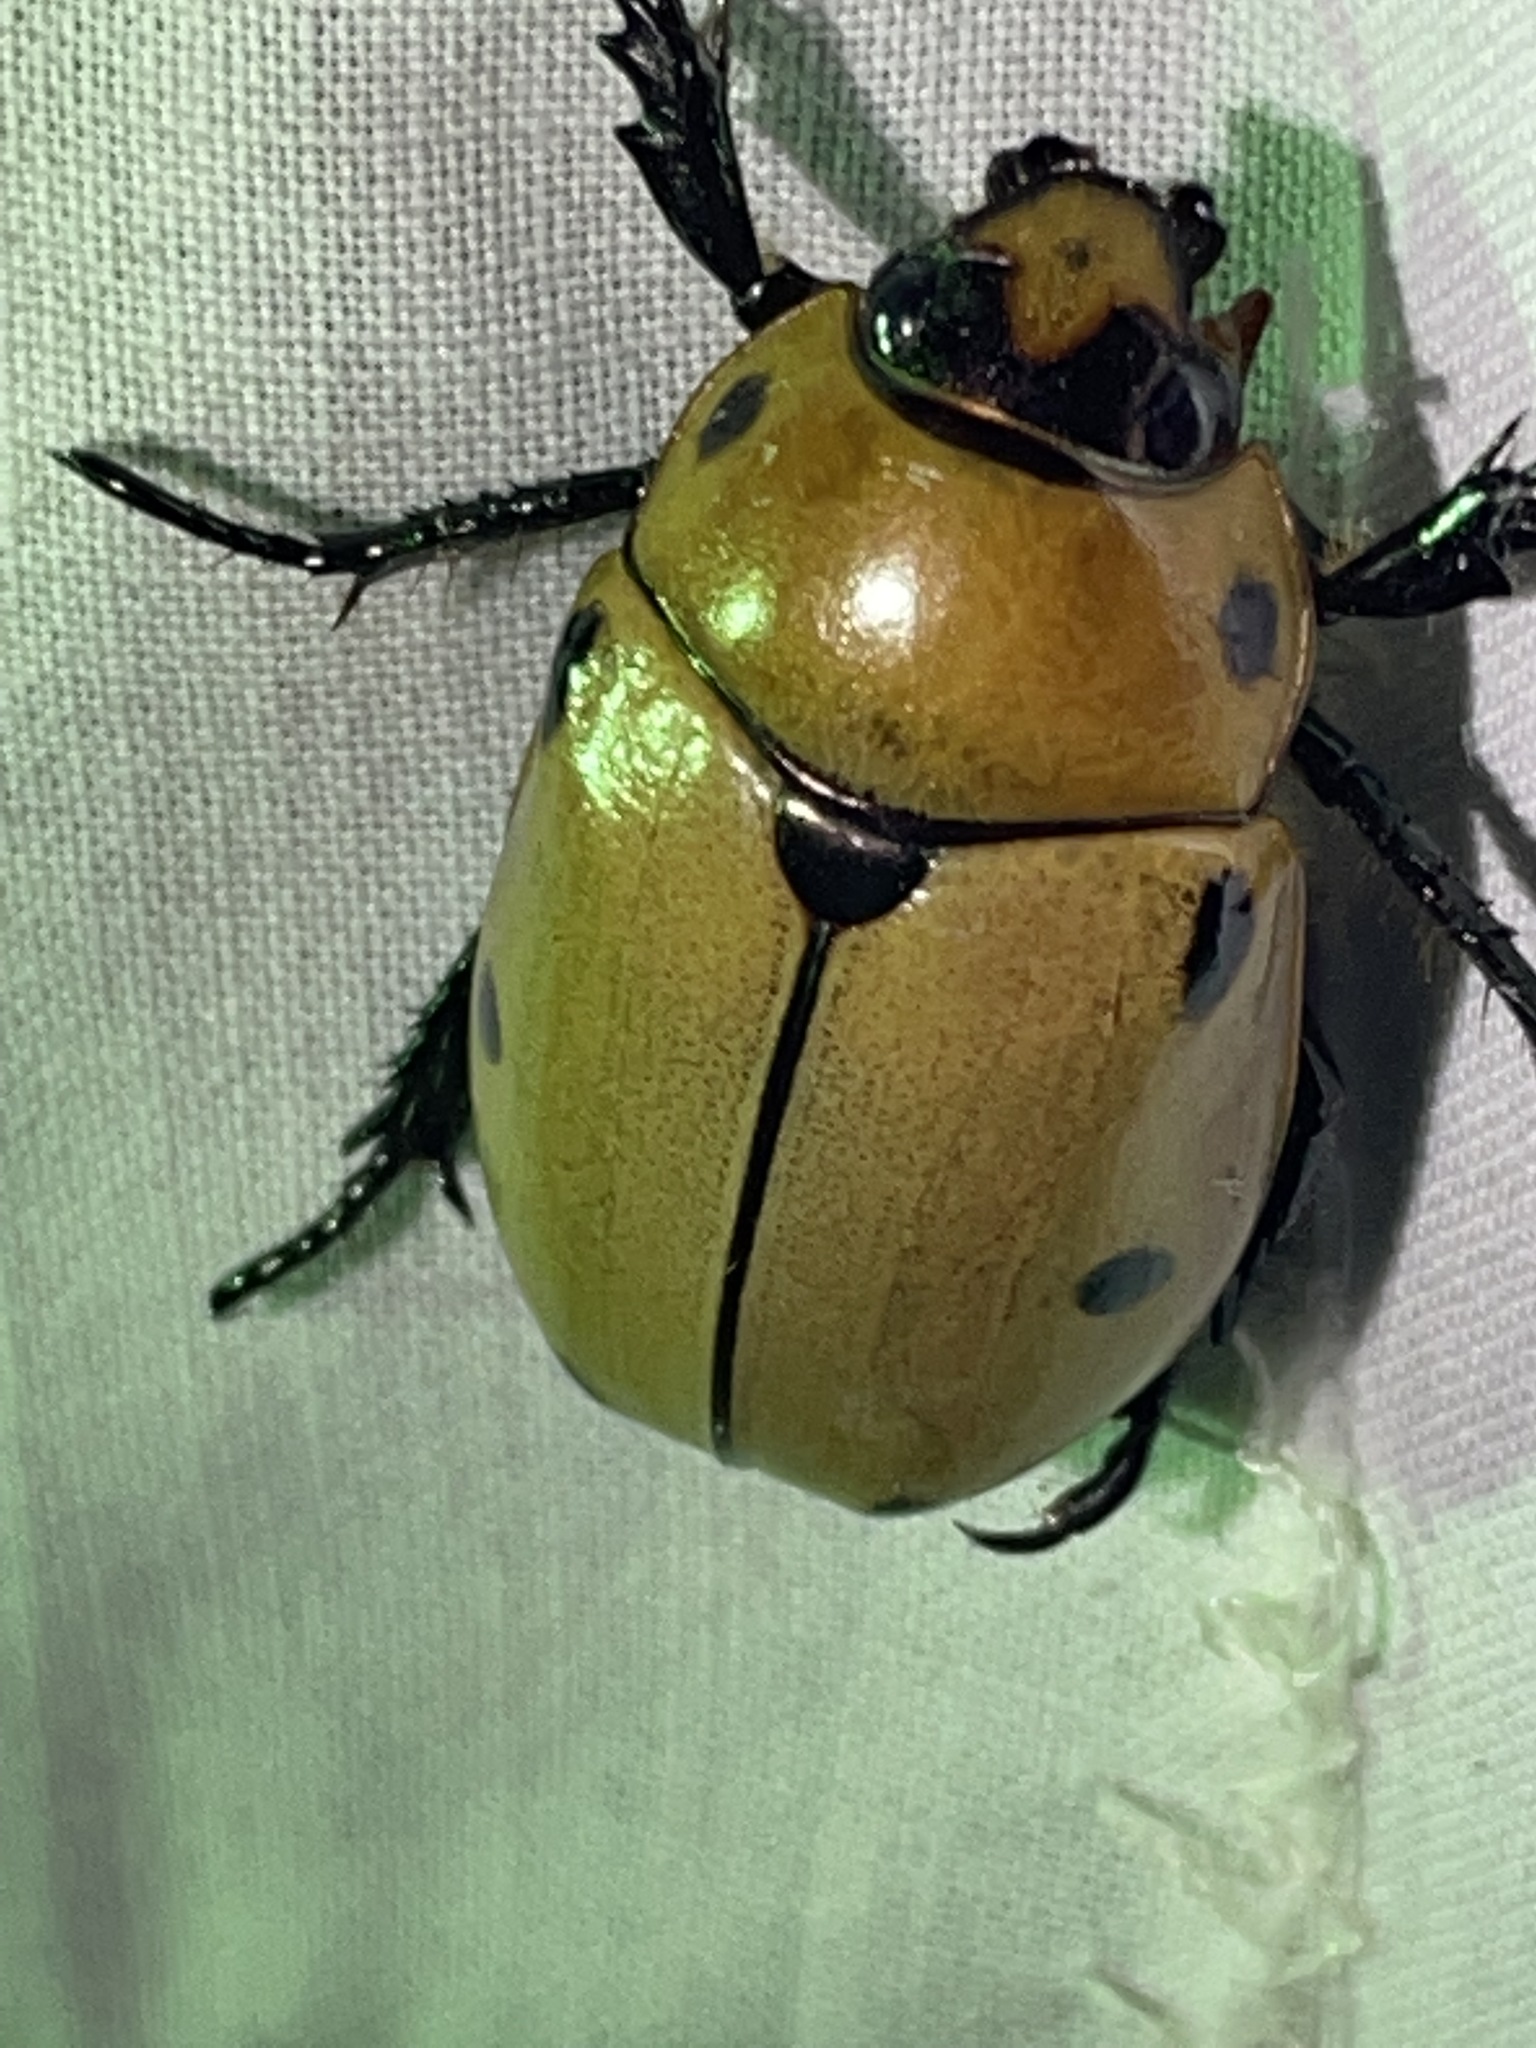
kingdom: Animalia
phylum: Arthropoda
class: Insecta
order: Coleoptera
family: Scarabaeidae
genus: Pelidnota
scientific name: Pelidnota punctata
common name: Grapevine beetle
